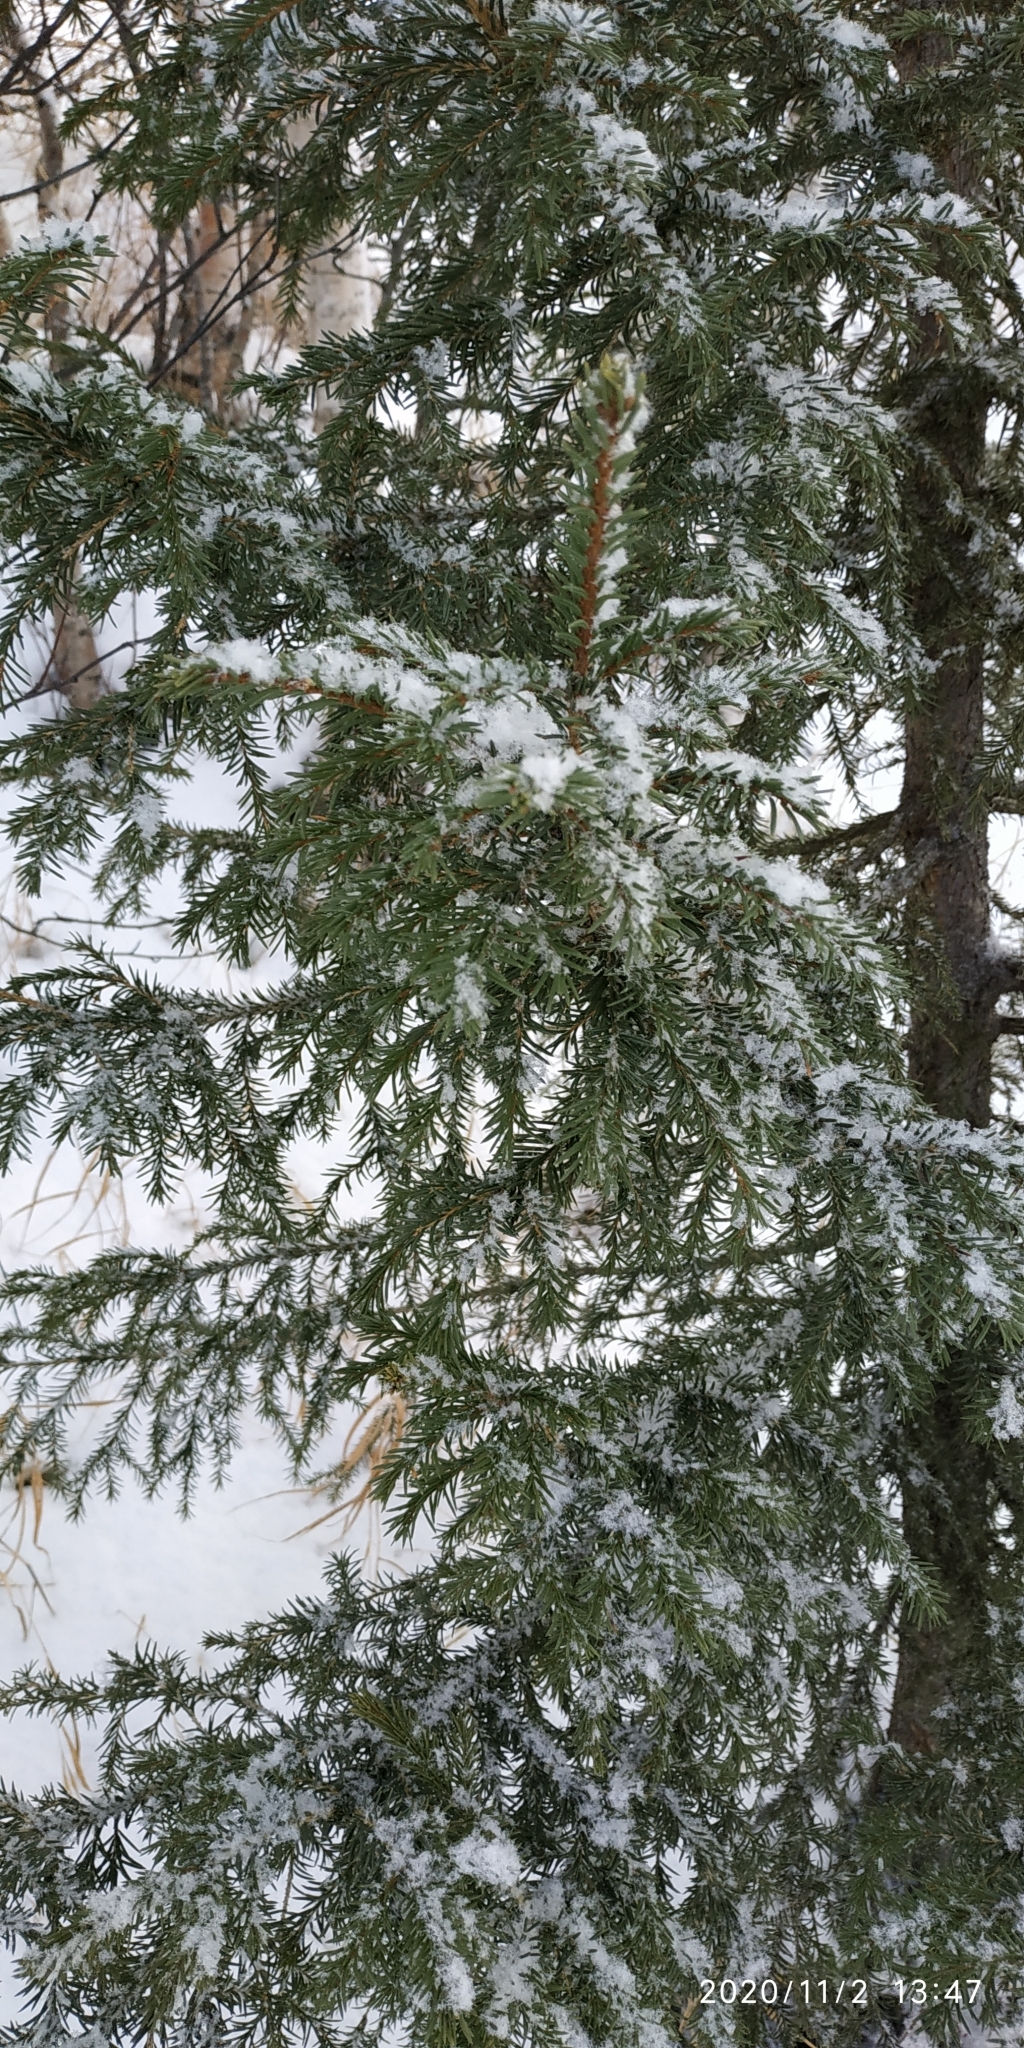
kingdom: Plantae
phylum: Tracheophyta
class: Pinopsida
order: Pinales
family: Pinaceae
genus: Picea
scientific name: Picea obovata
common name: Siberian spruce
